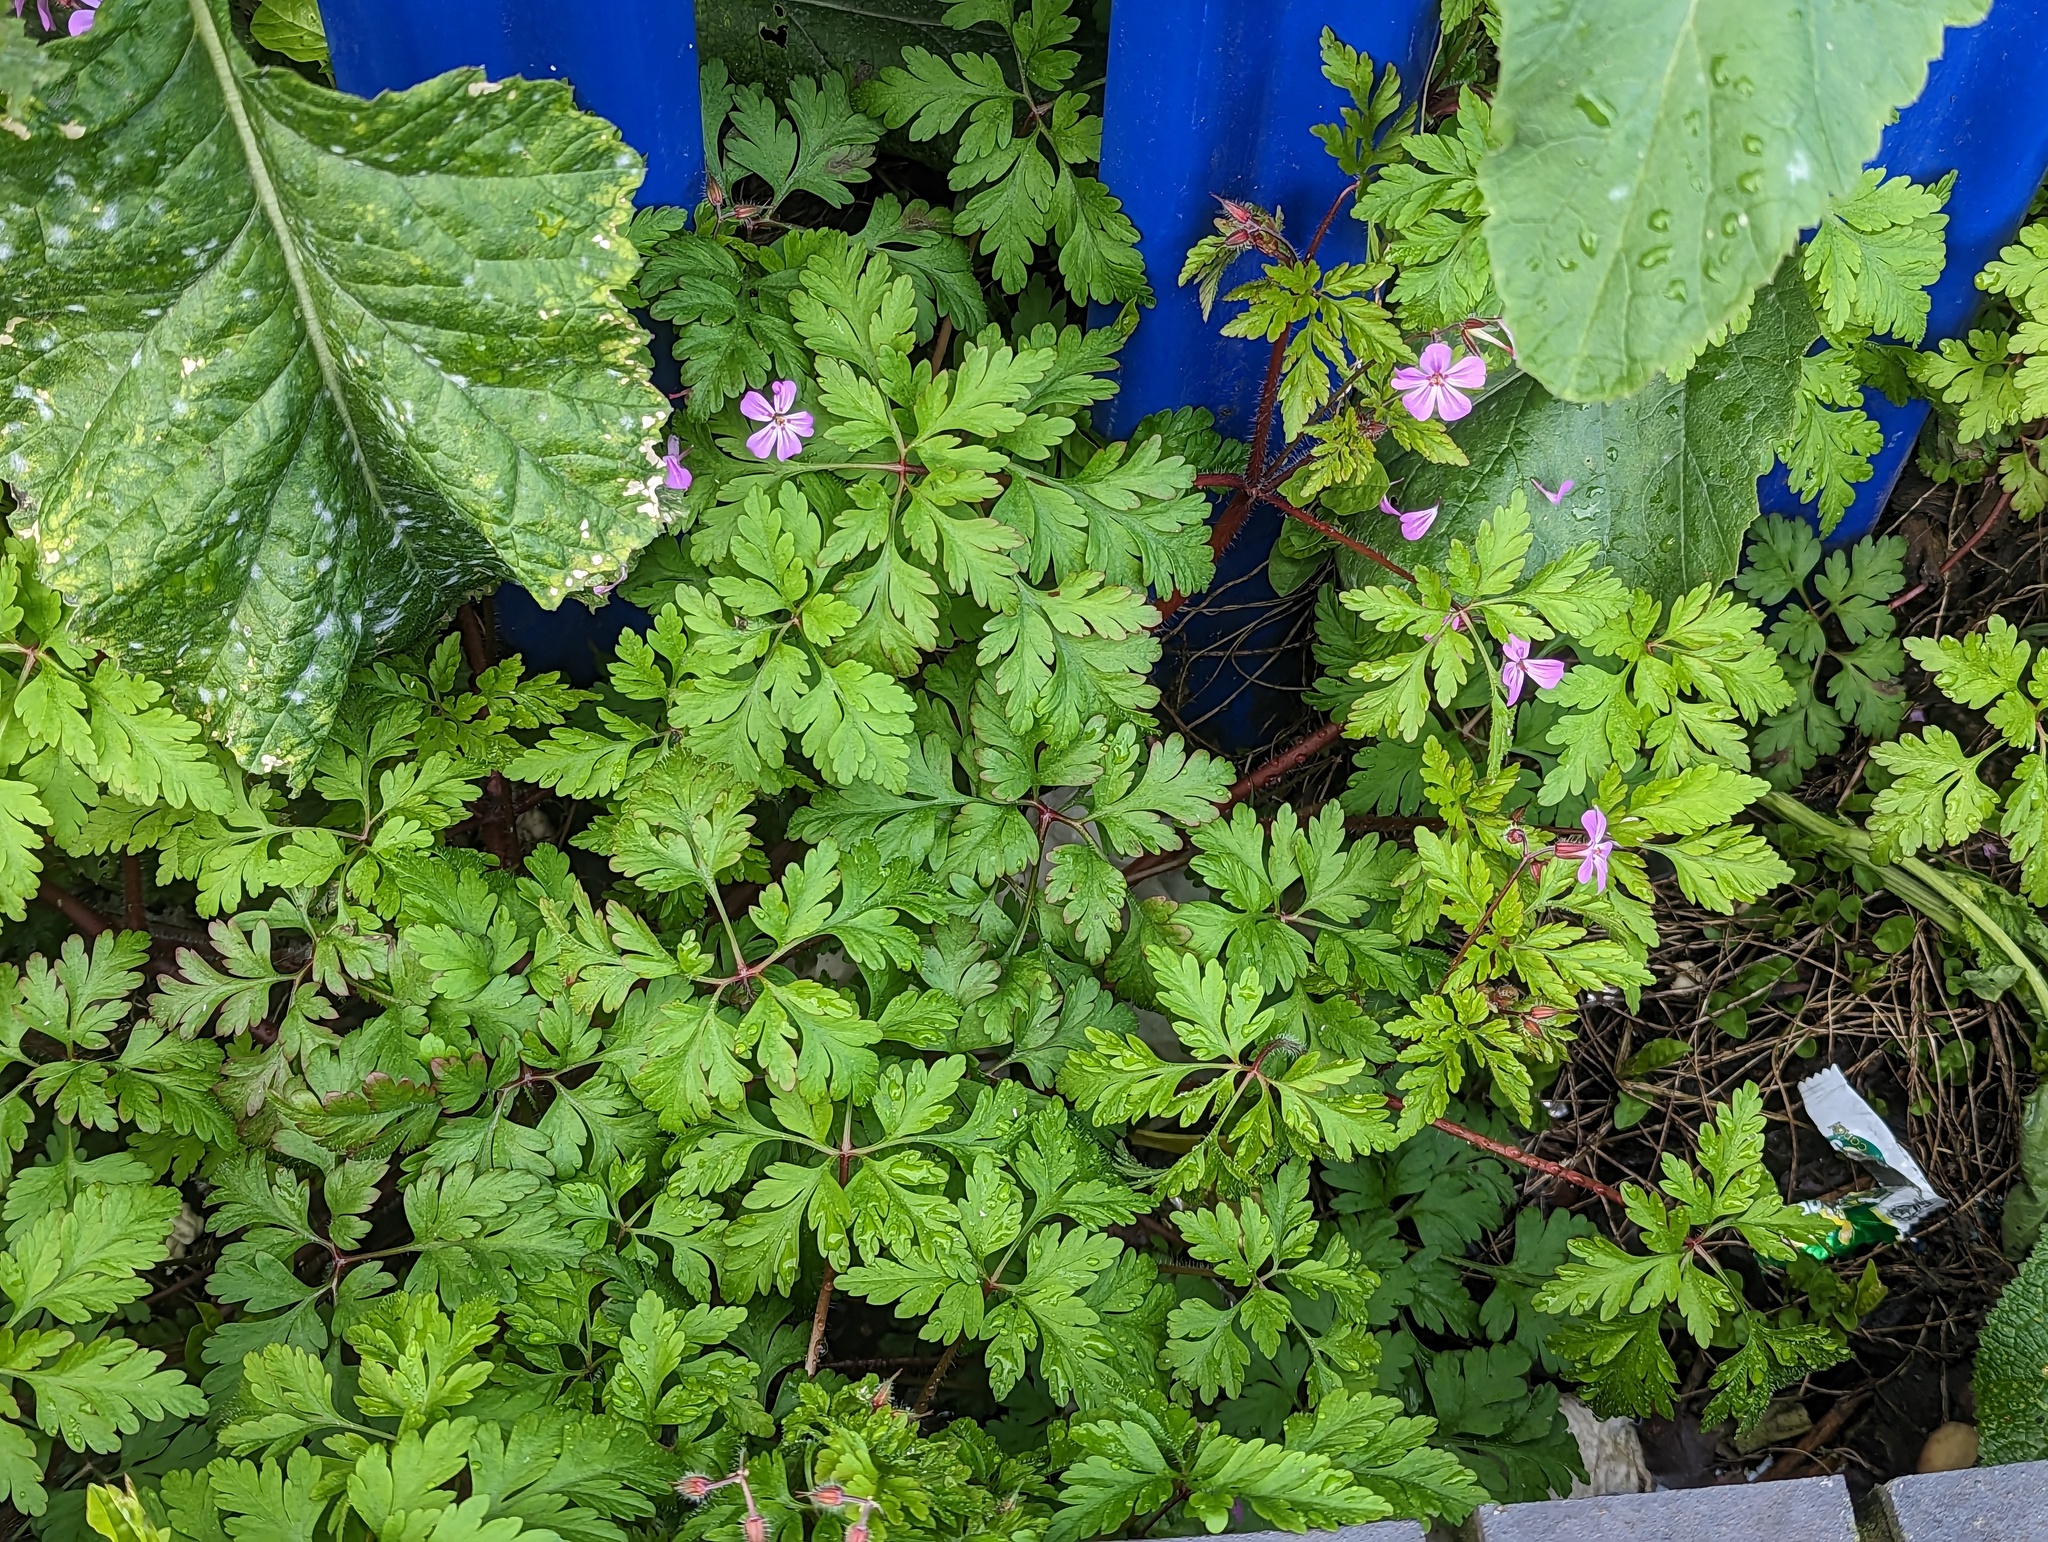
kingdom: Plantae
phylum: Tracheophyta
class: Magnoliopsida
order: Geraniales
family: Geraniaceae
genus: Geranium
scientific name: Geranium robertianum
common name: Herb-robert
